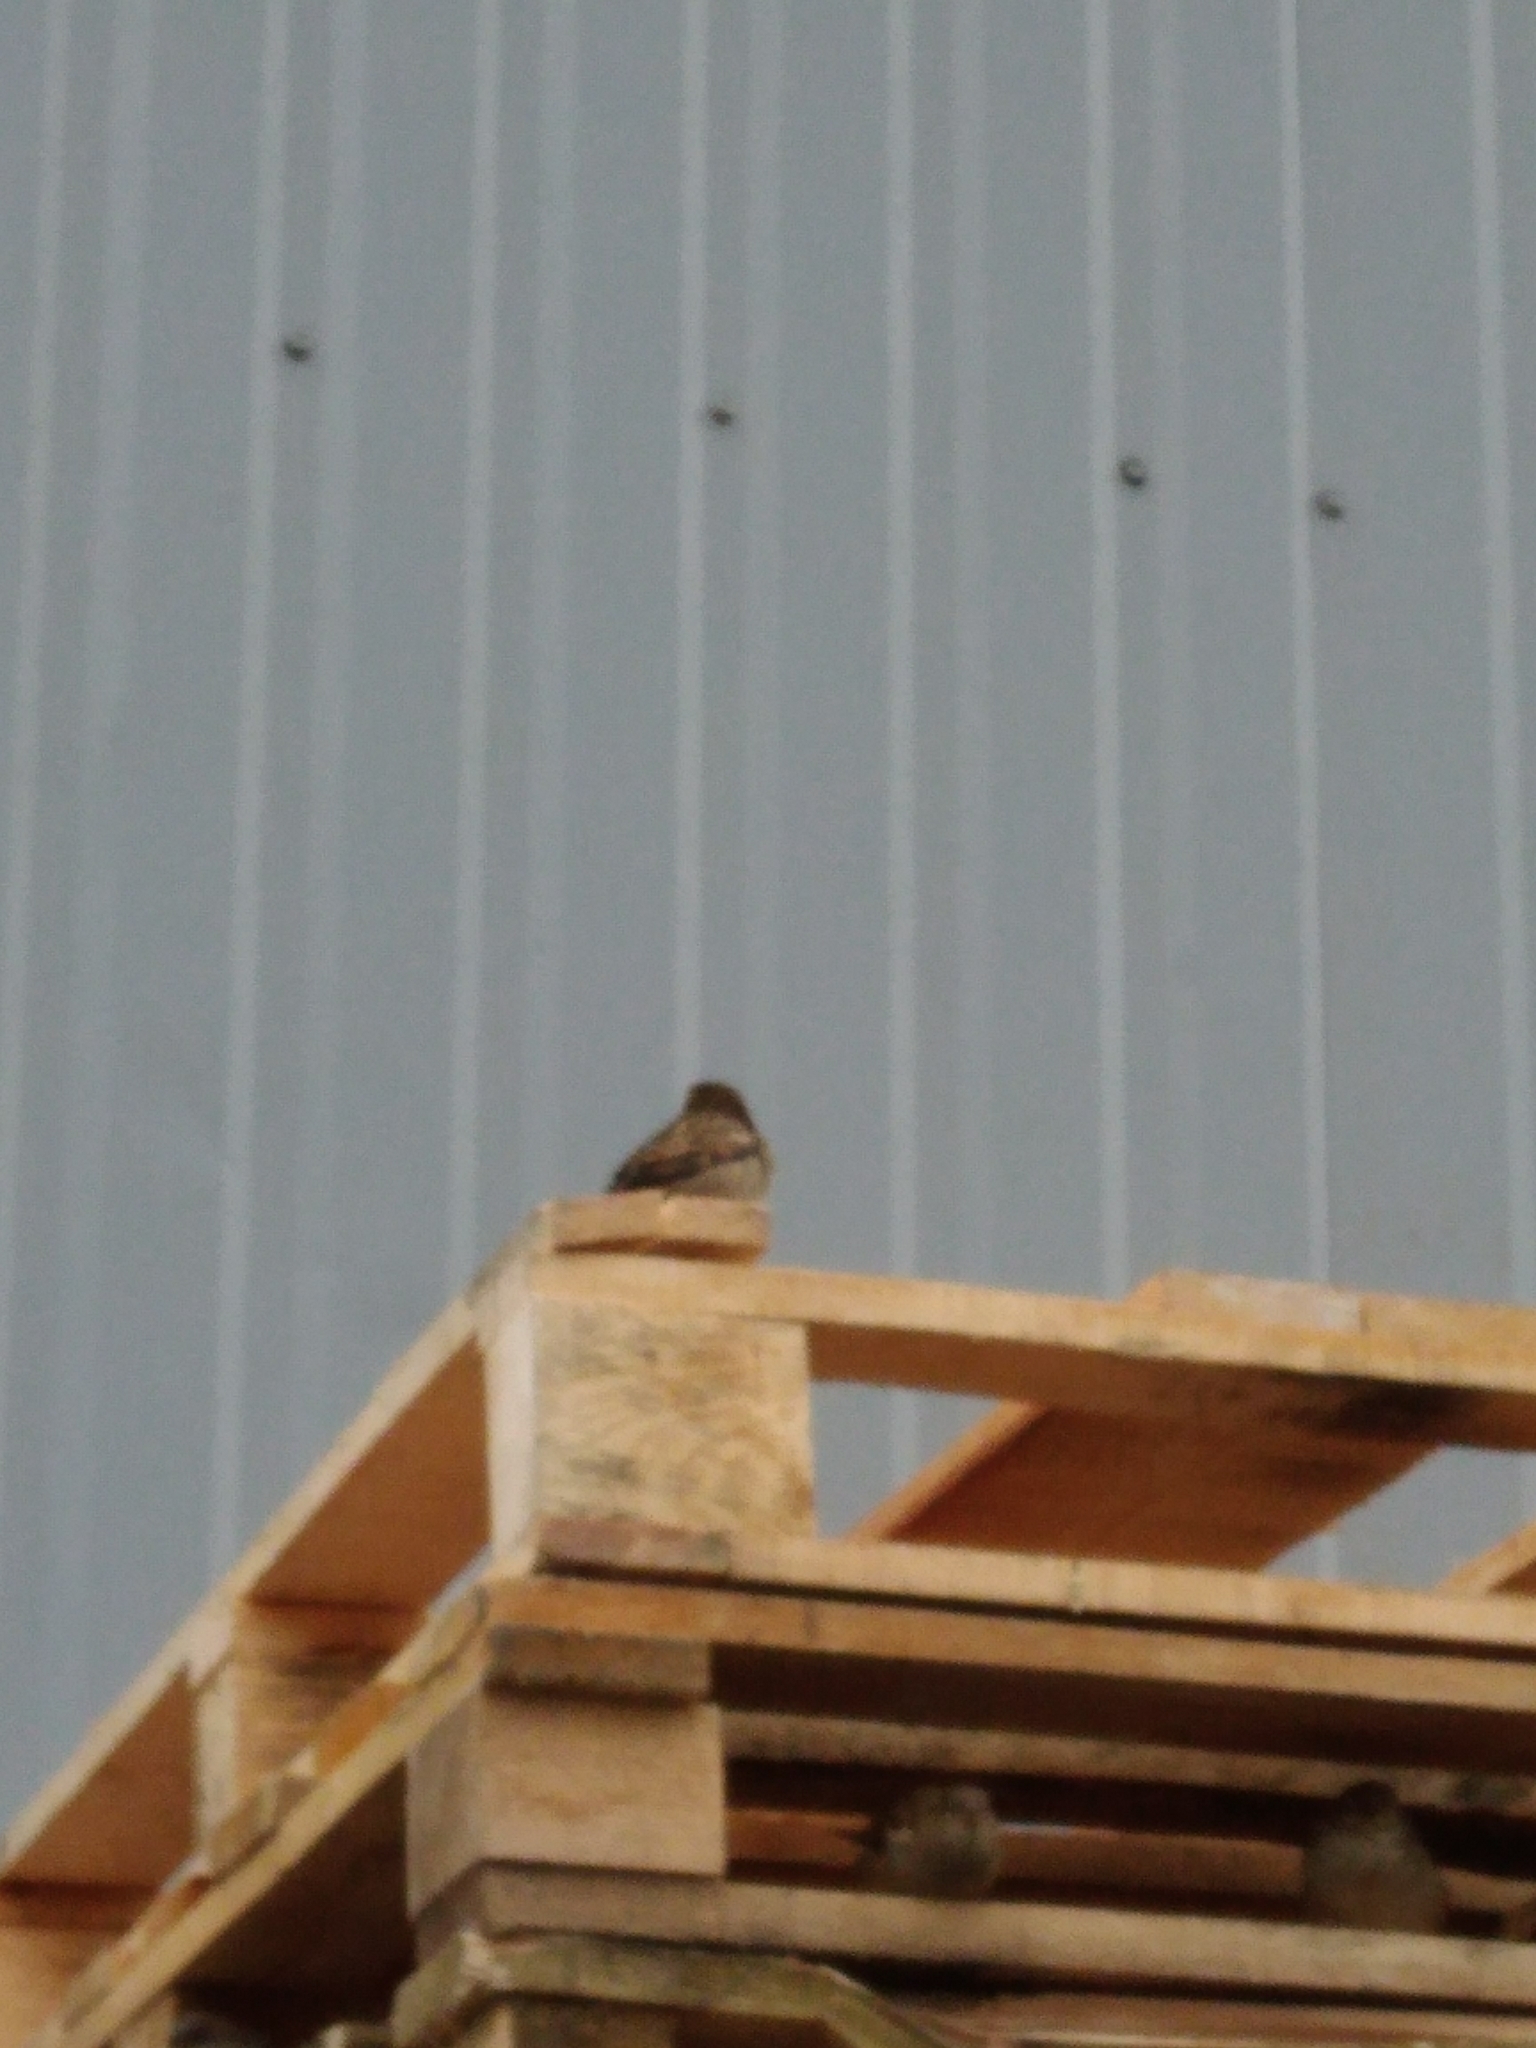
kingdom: Animalia
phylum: Chordata
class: Aves
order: Passeriformes
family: Passeridae
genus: Passer
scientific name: Passer domesticus
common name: House sparrow
